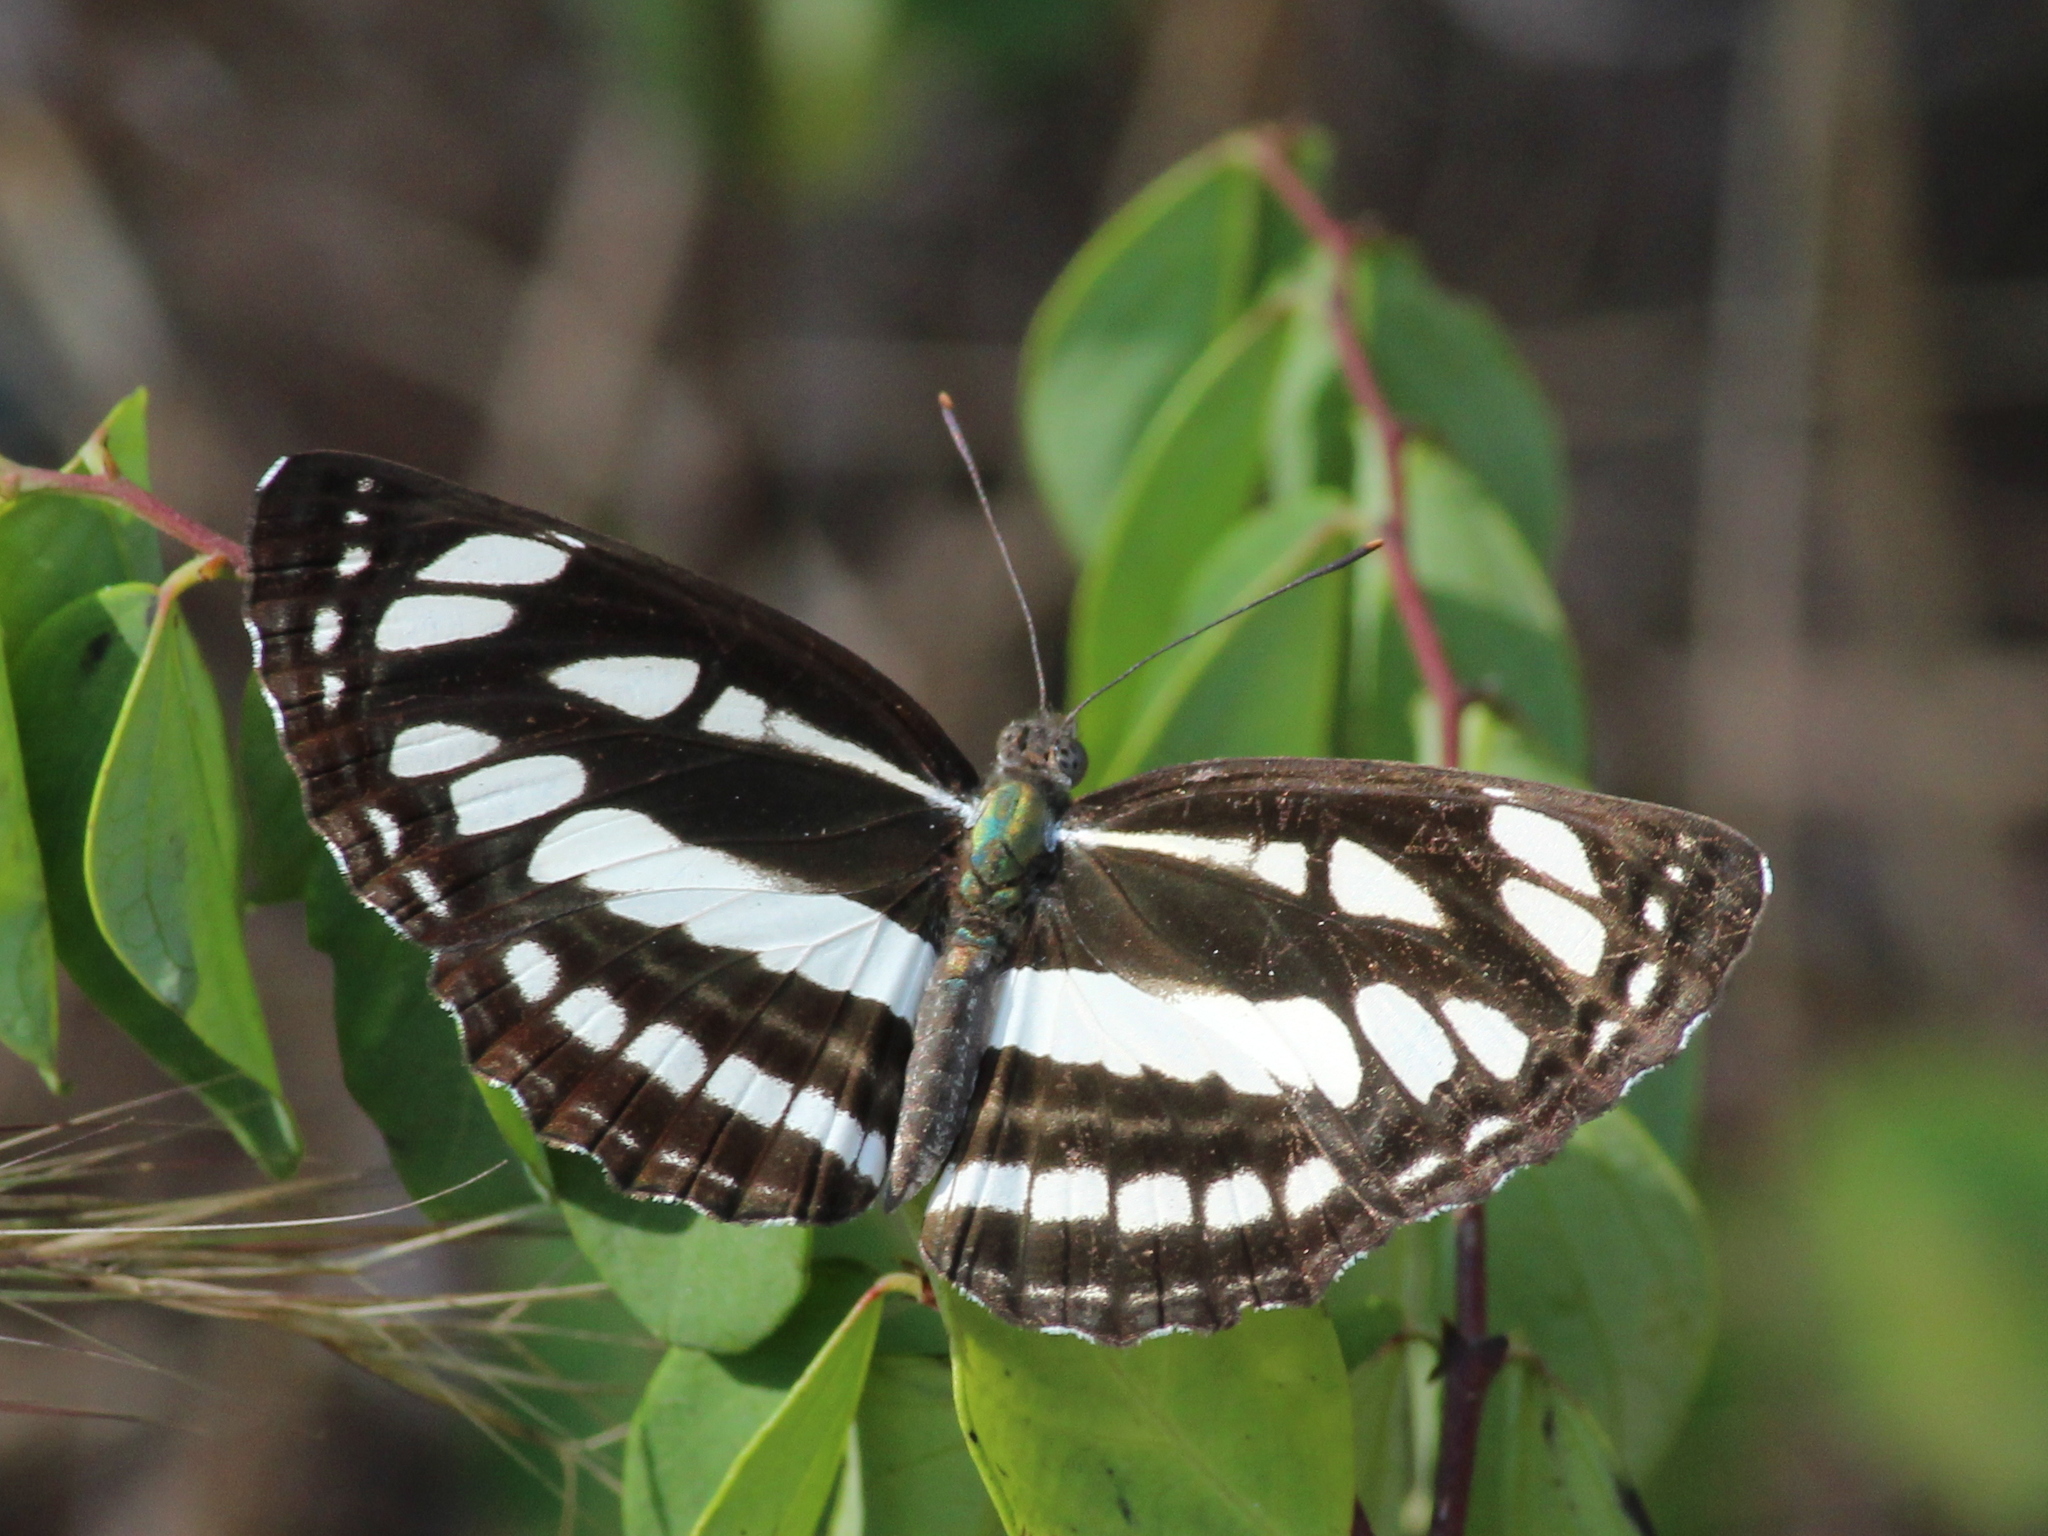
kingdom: Animalia
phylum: Arthropoda
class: Insecta
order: Lepidoptera
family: Nymphalidae
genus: Neptis
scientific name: Neptis hylas
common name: Common sailer
